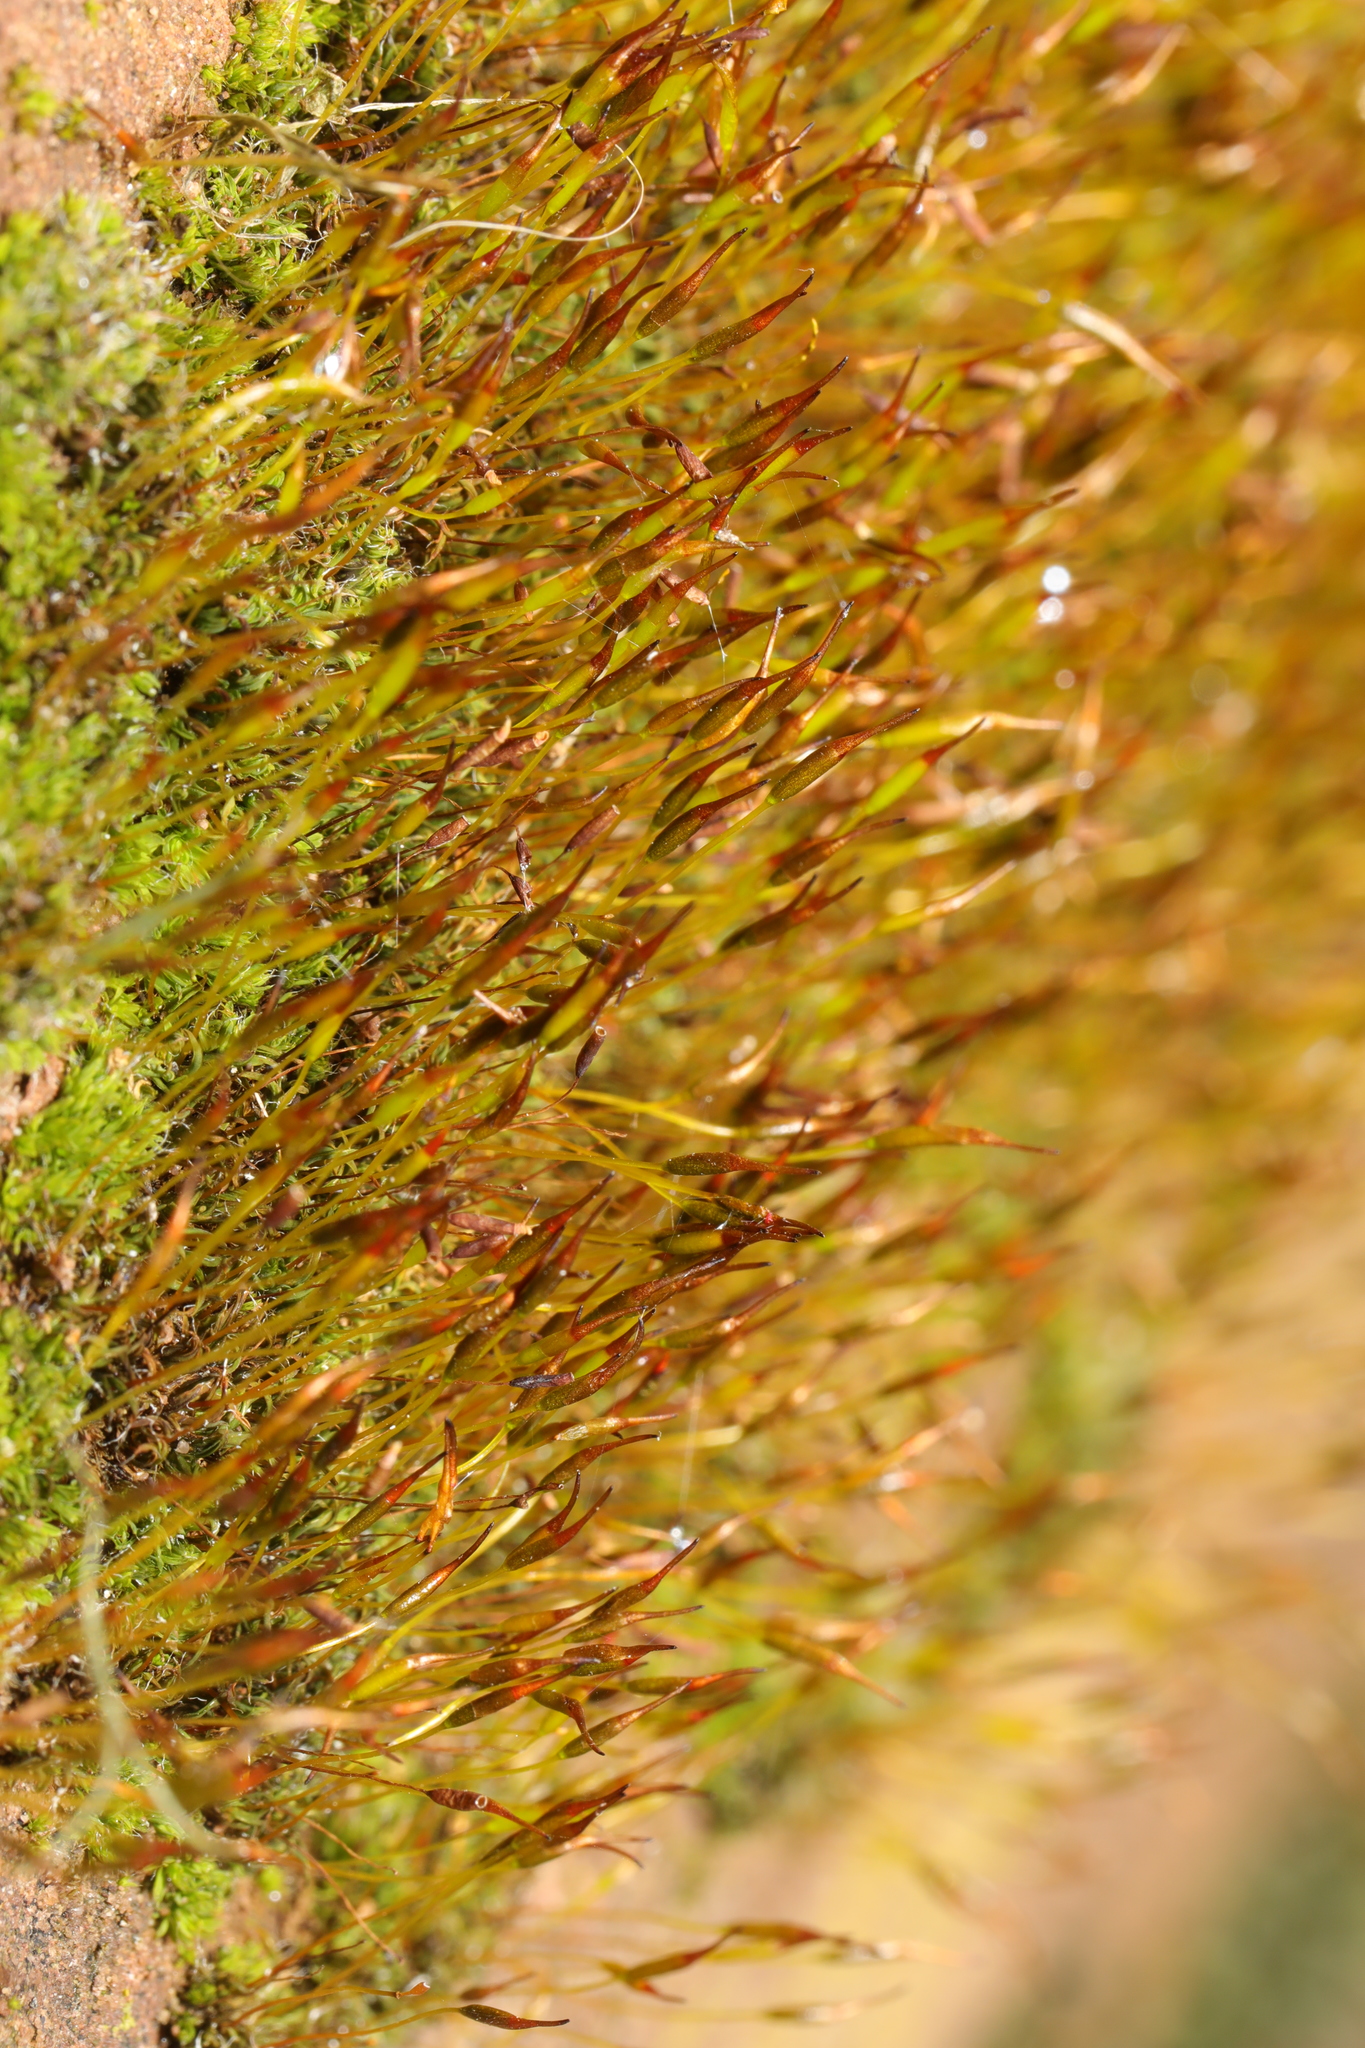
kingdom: Plantae
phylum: Bryophyta
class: Bryopsida
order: Pottiales
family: Pottiaceae
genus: Tortula
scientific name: Tortula muralis
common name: Wall screw-moss
